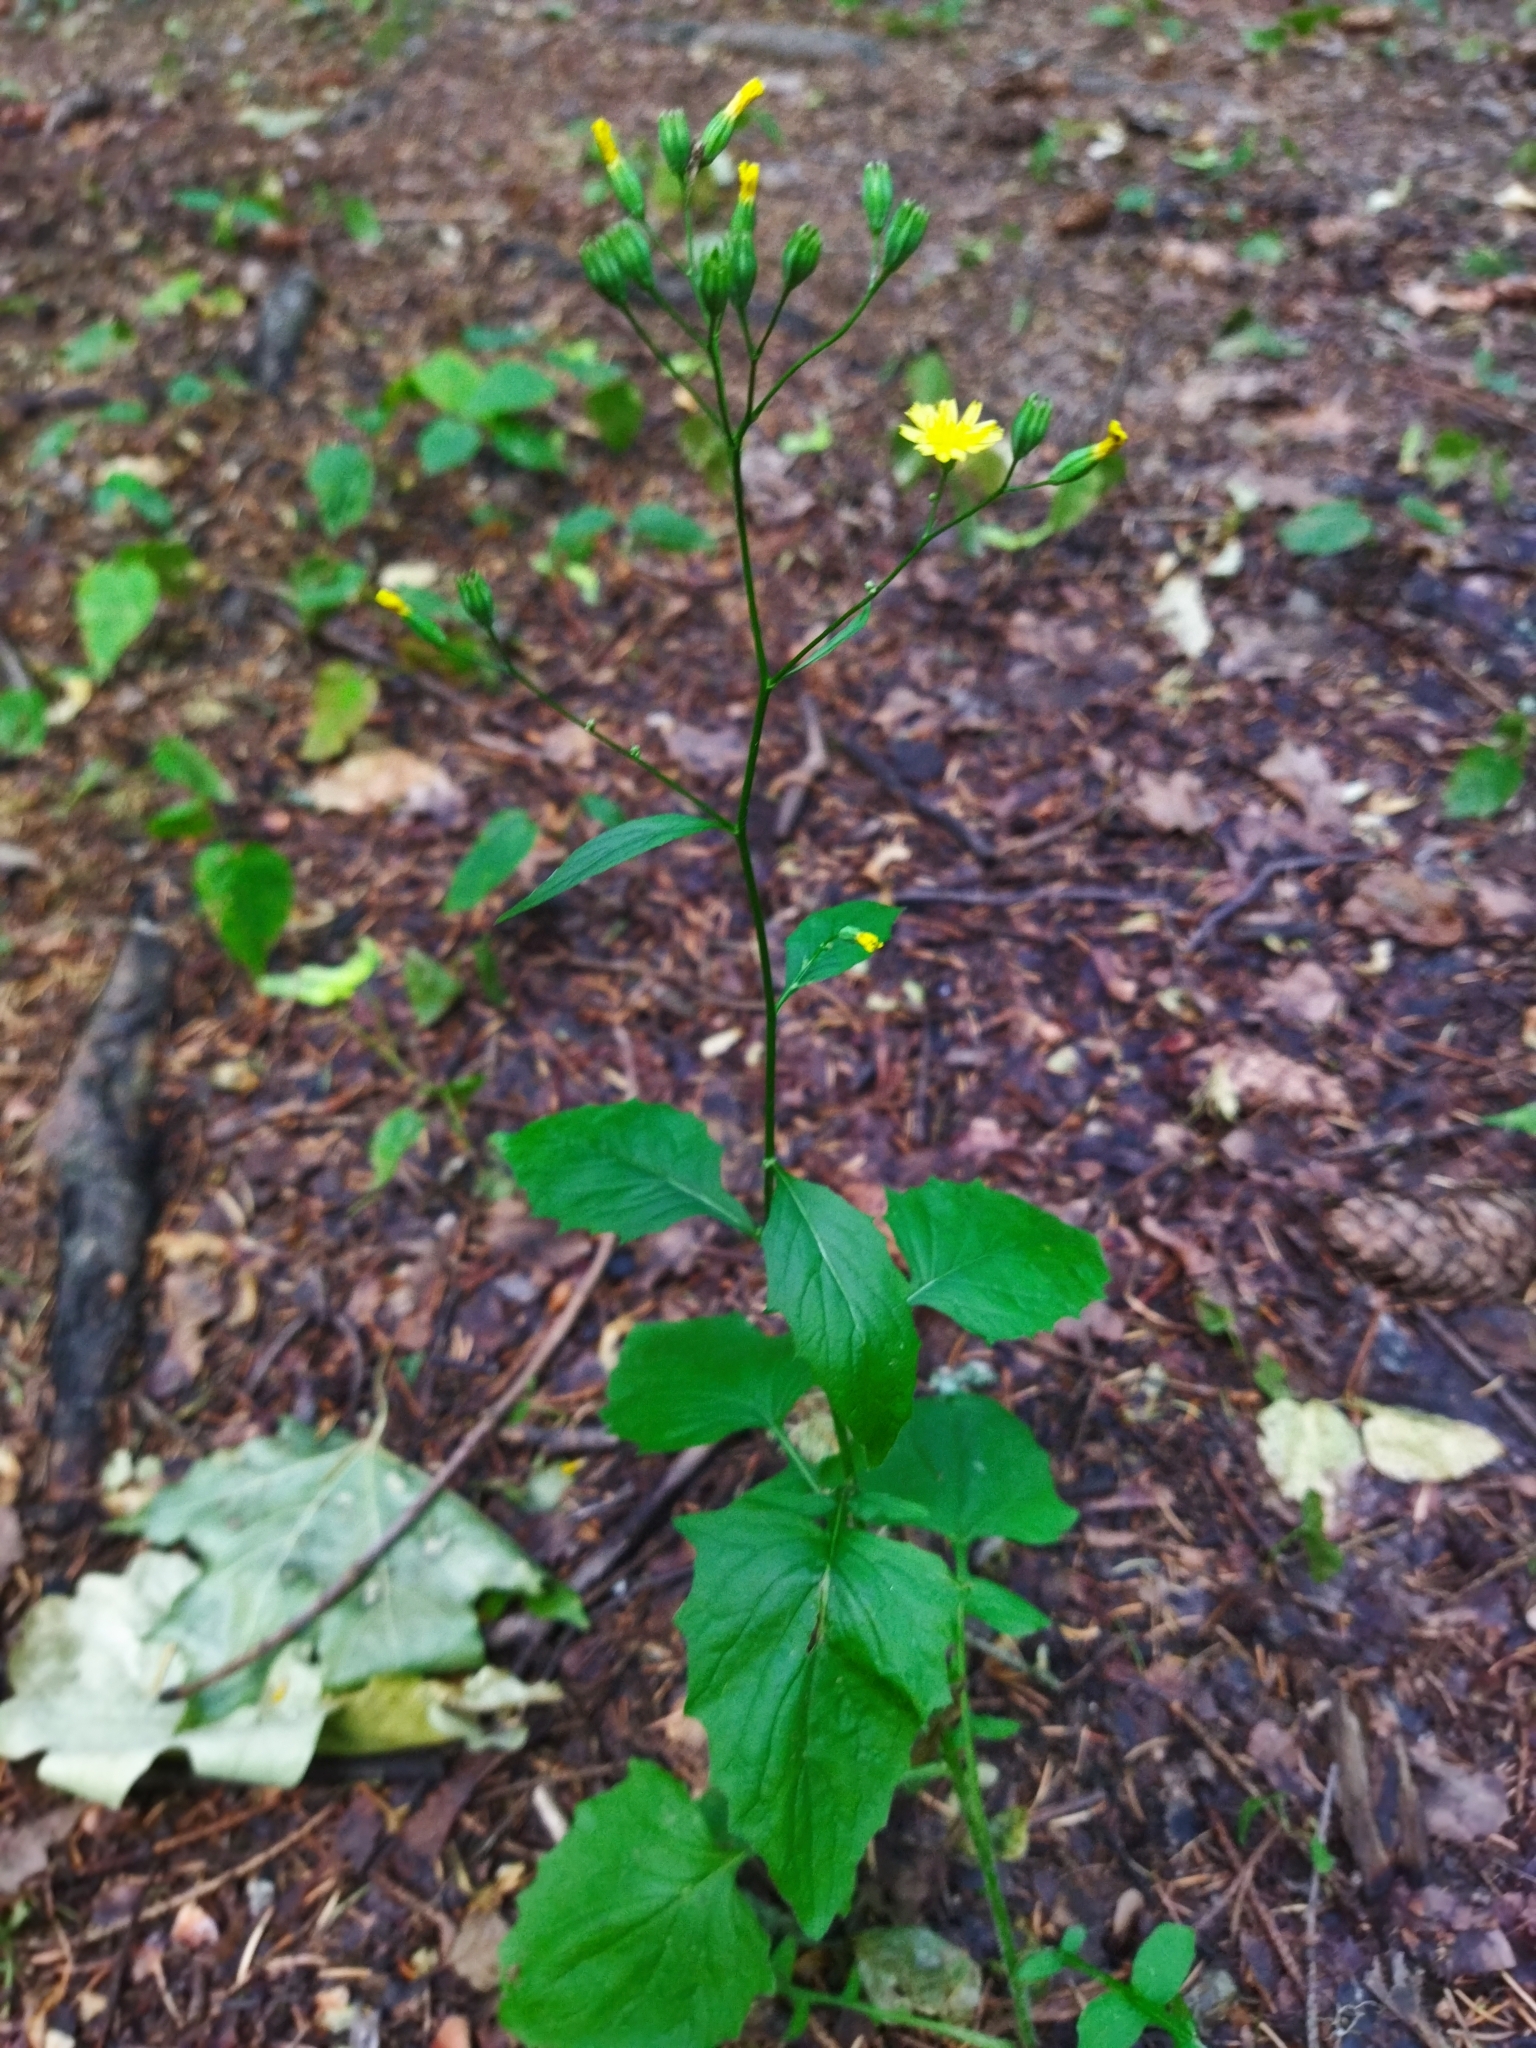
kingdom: Plantae
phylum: Tracheophyta
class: Magnoliopsida
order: Asterales
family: Asteraceae
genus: Lapsana
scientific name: Lapsana communis
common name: Nipplewort
